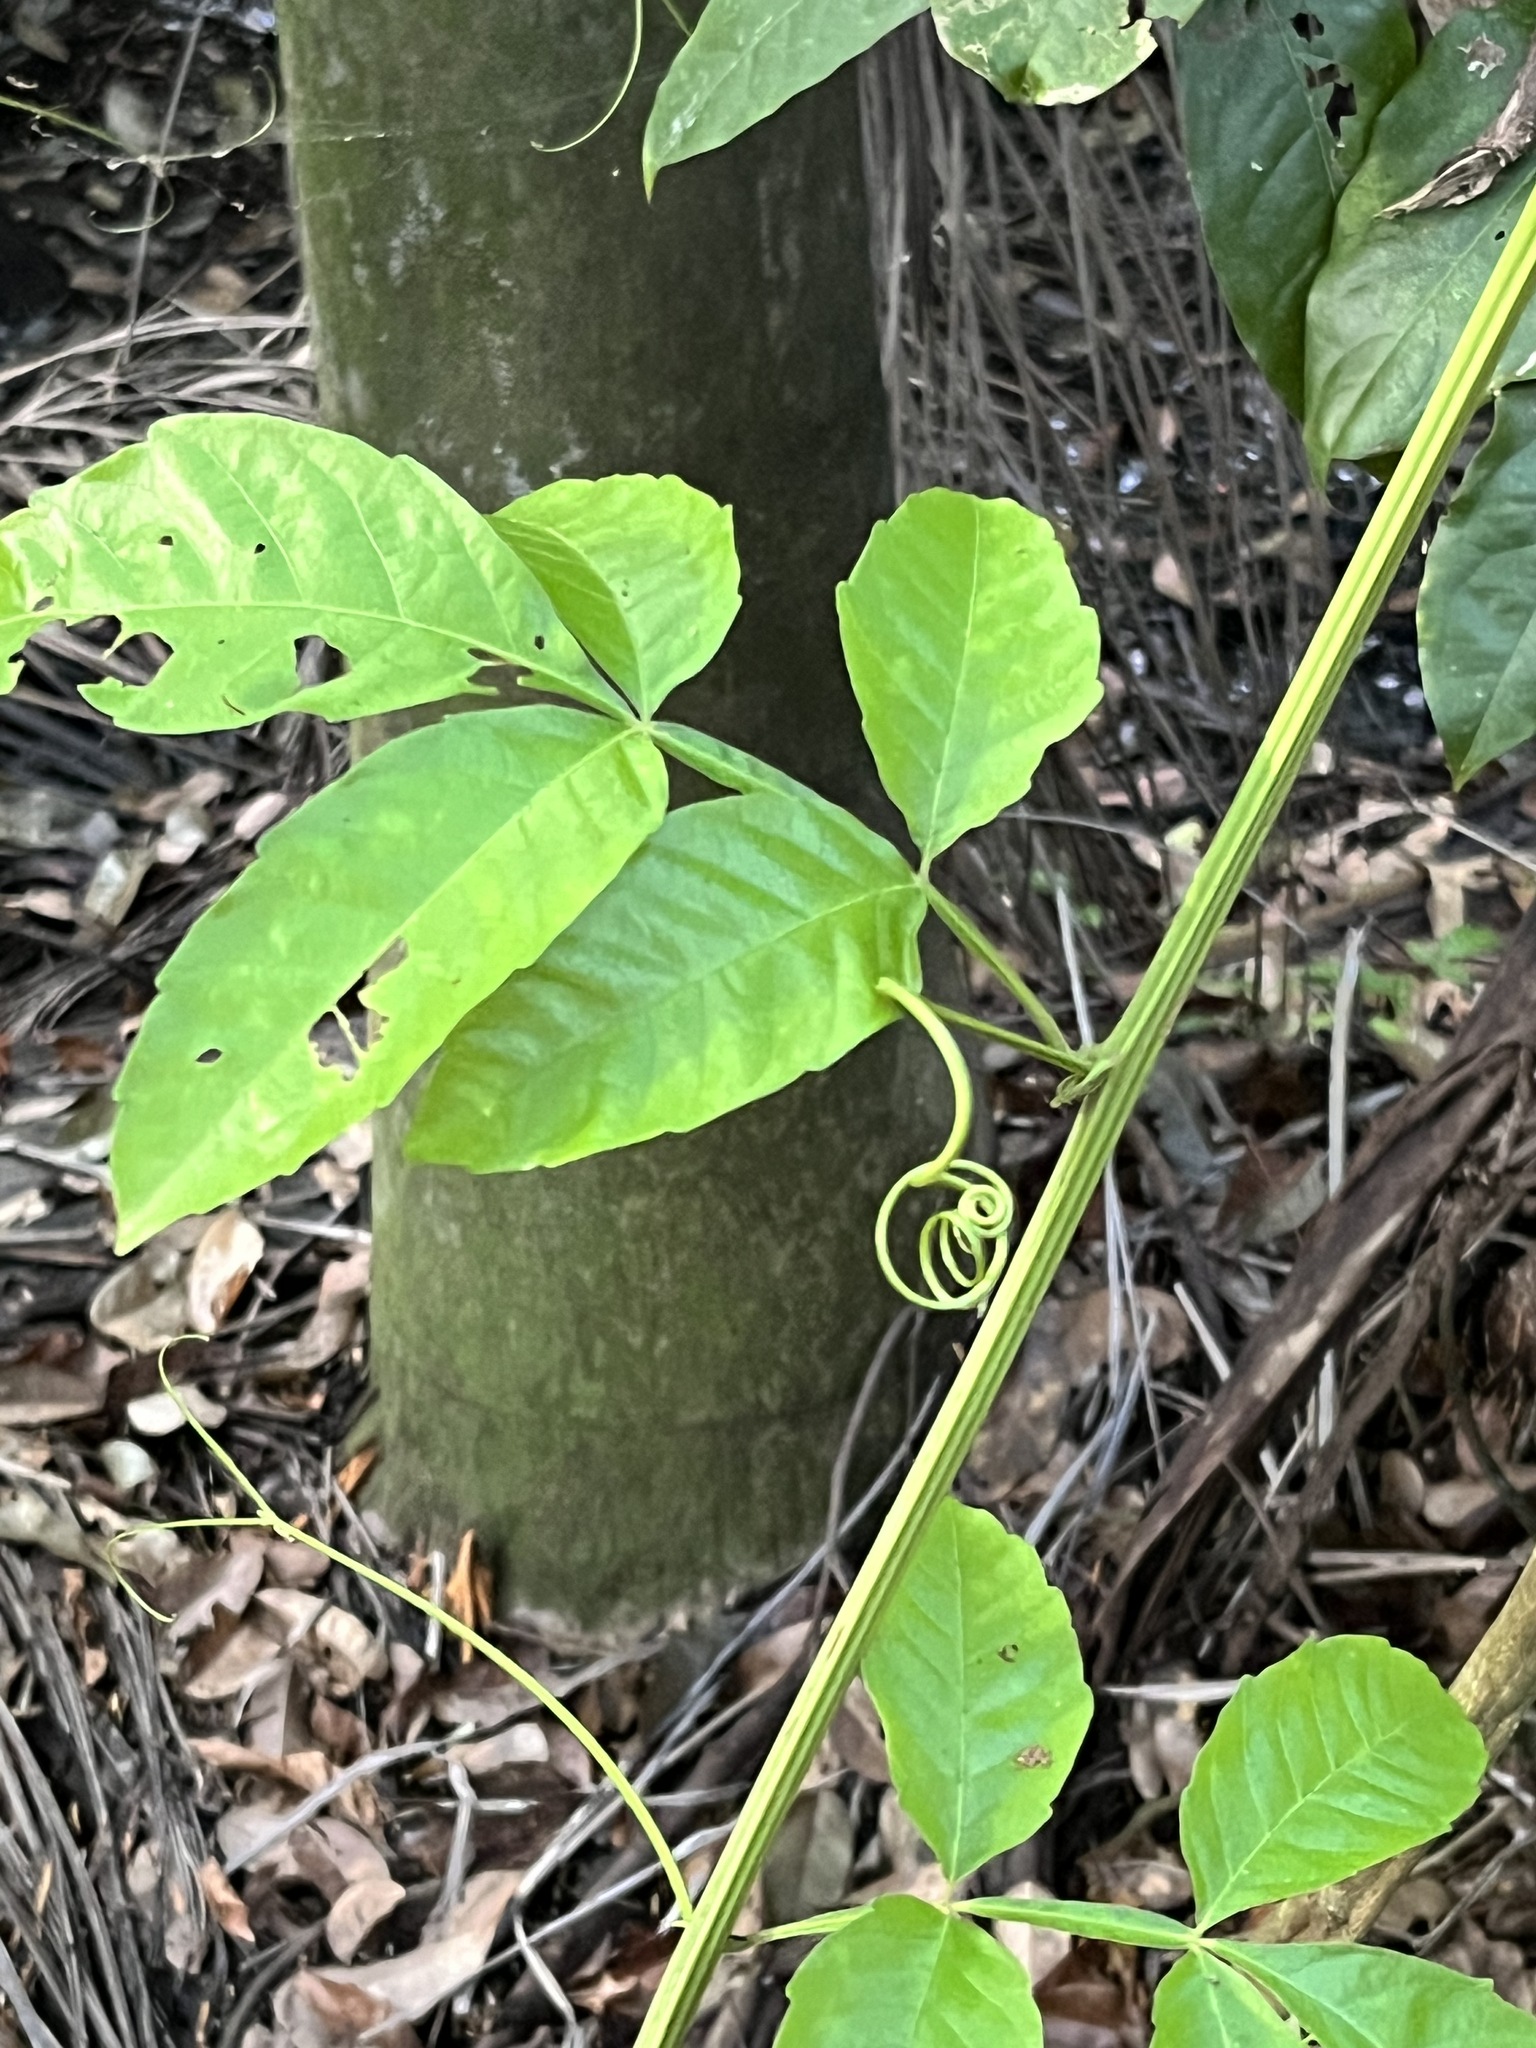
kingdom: Plantae
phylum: Tracheophyta
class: Magnoliopsida
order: Sapindales
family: Sapindaceae
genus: Paullinia
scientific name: Paullinia pinnata
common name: Barbasco
